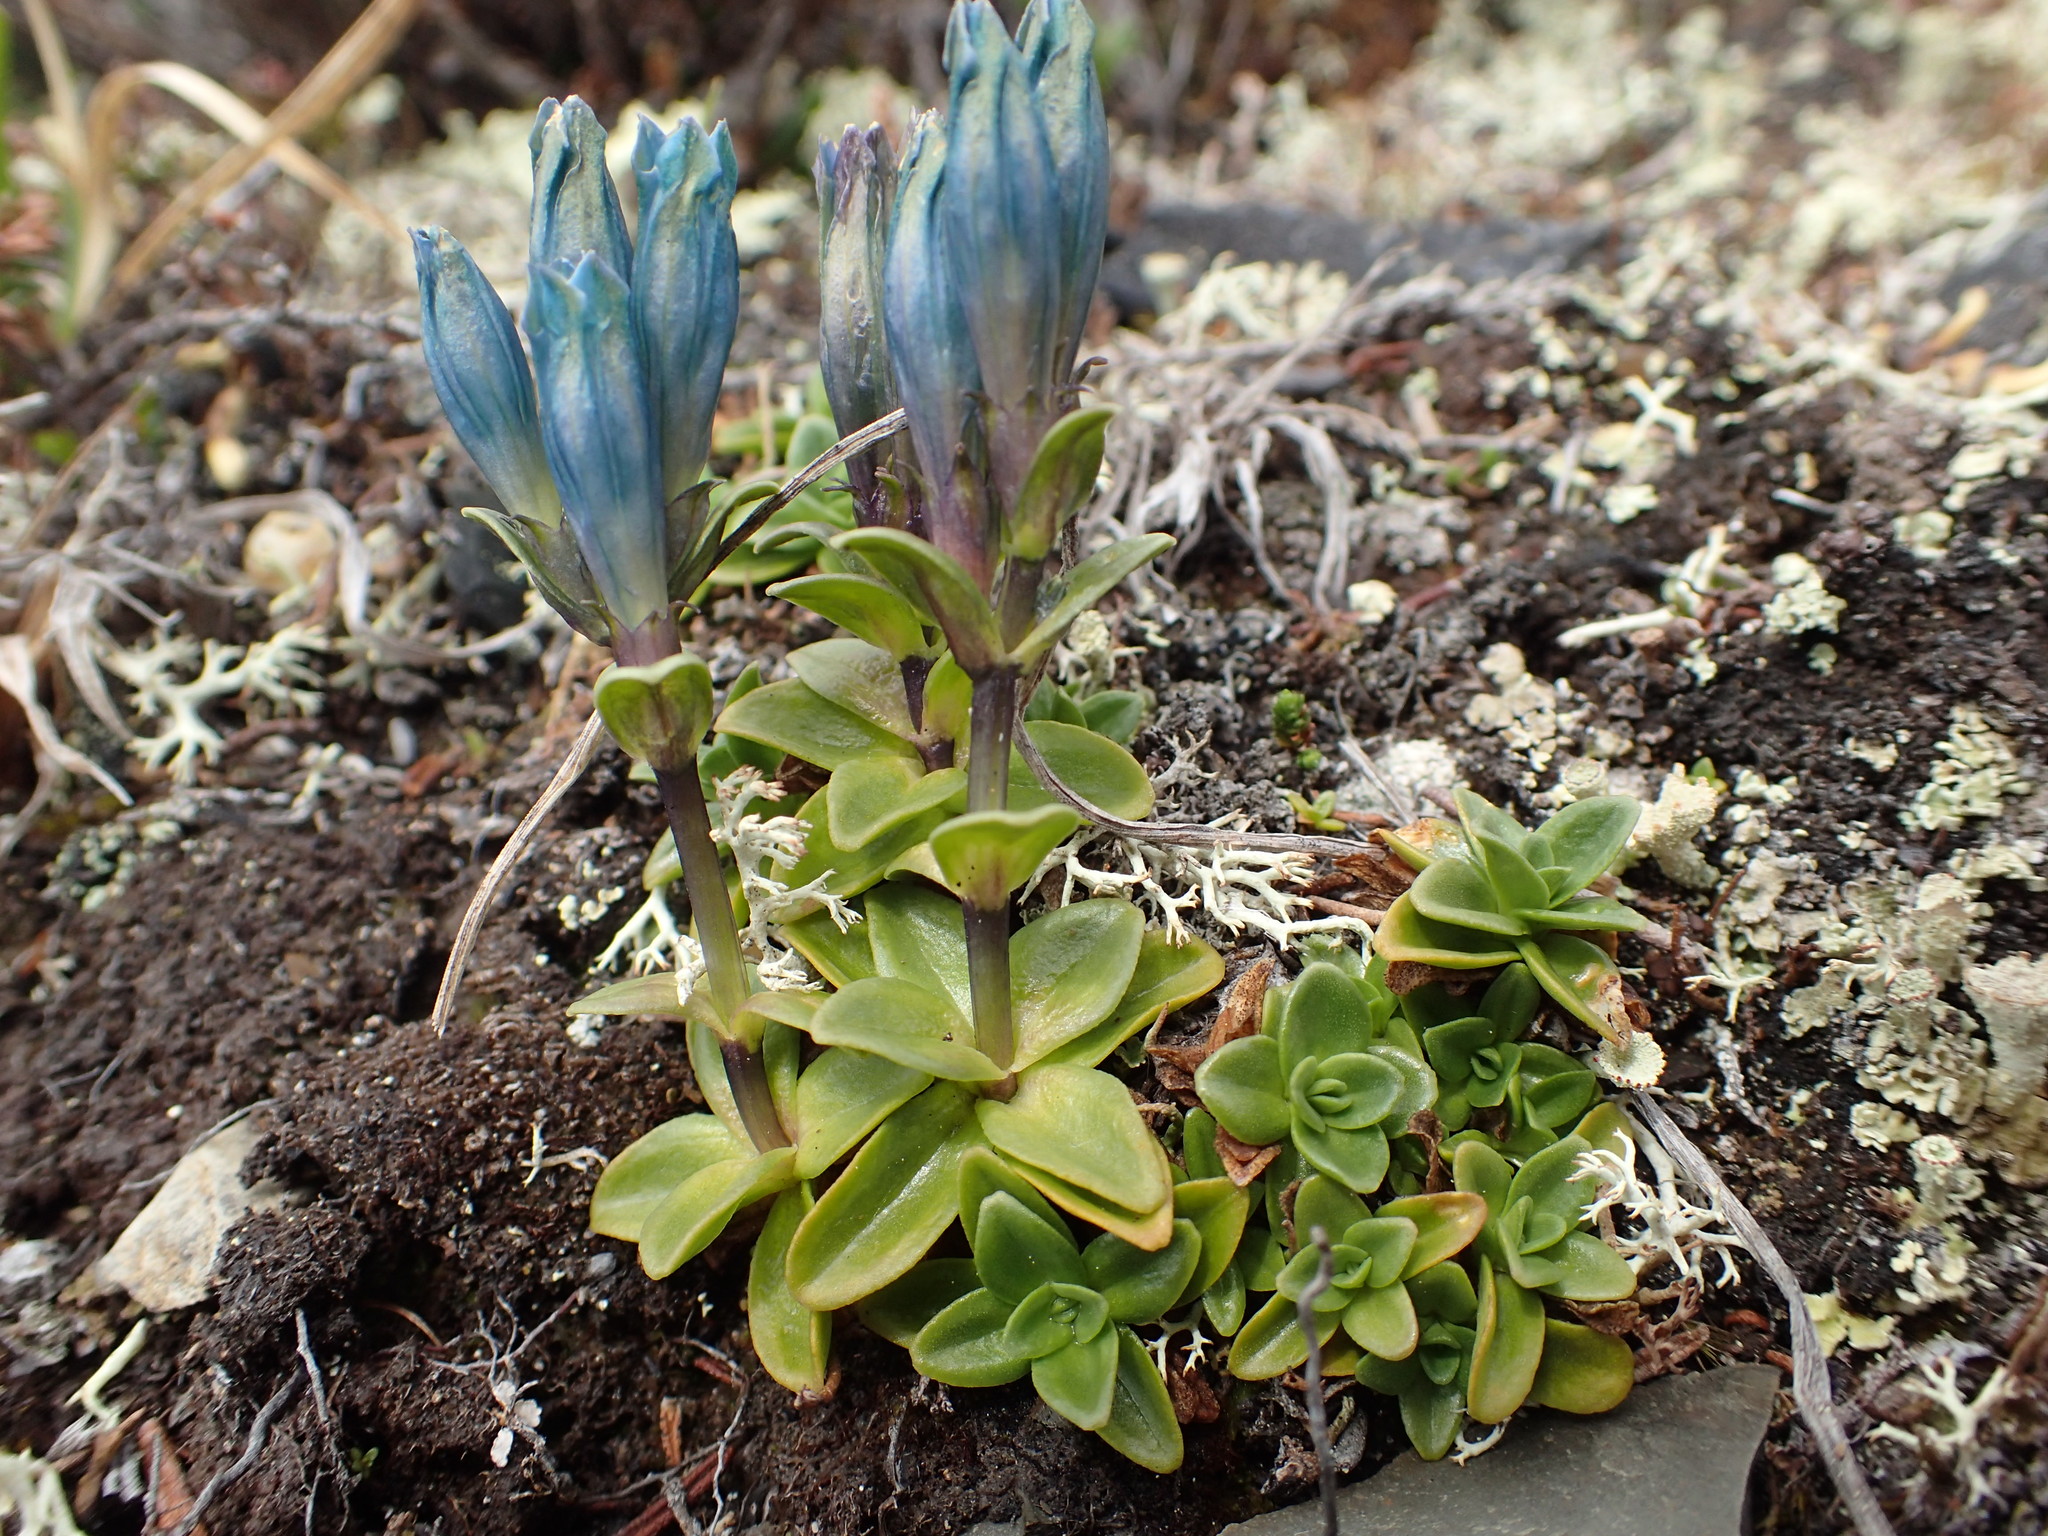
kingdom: Plantae
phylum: Tracheophyta
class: Magnoliopsida
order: Gentianales
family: Gentianaceae
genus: Gentiana
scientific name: Gentiana glauca
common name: Alpine gentian
